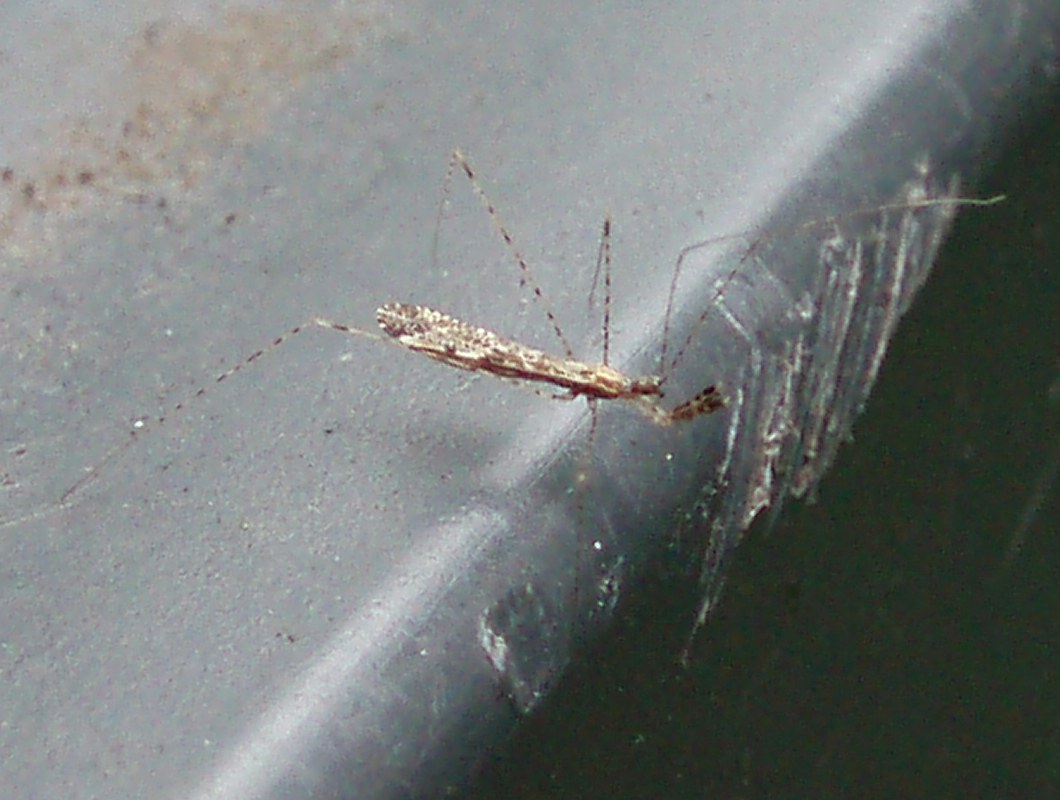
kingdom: Animalia
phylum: Arthropoda
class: Insecta
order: Hemiptera
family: Reduviidae
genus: Empicoris
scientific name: Empicoris vagabundus
